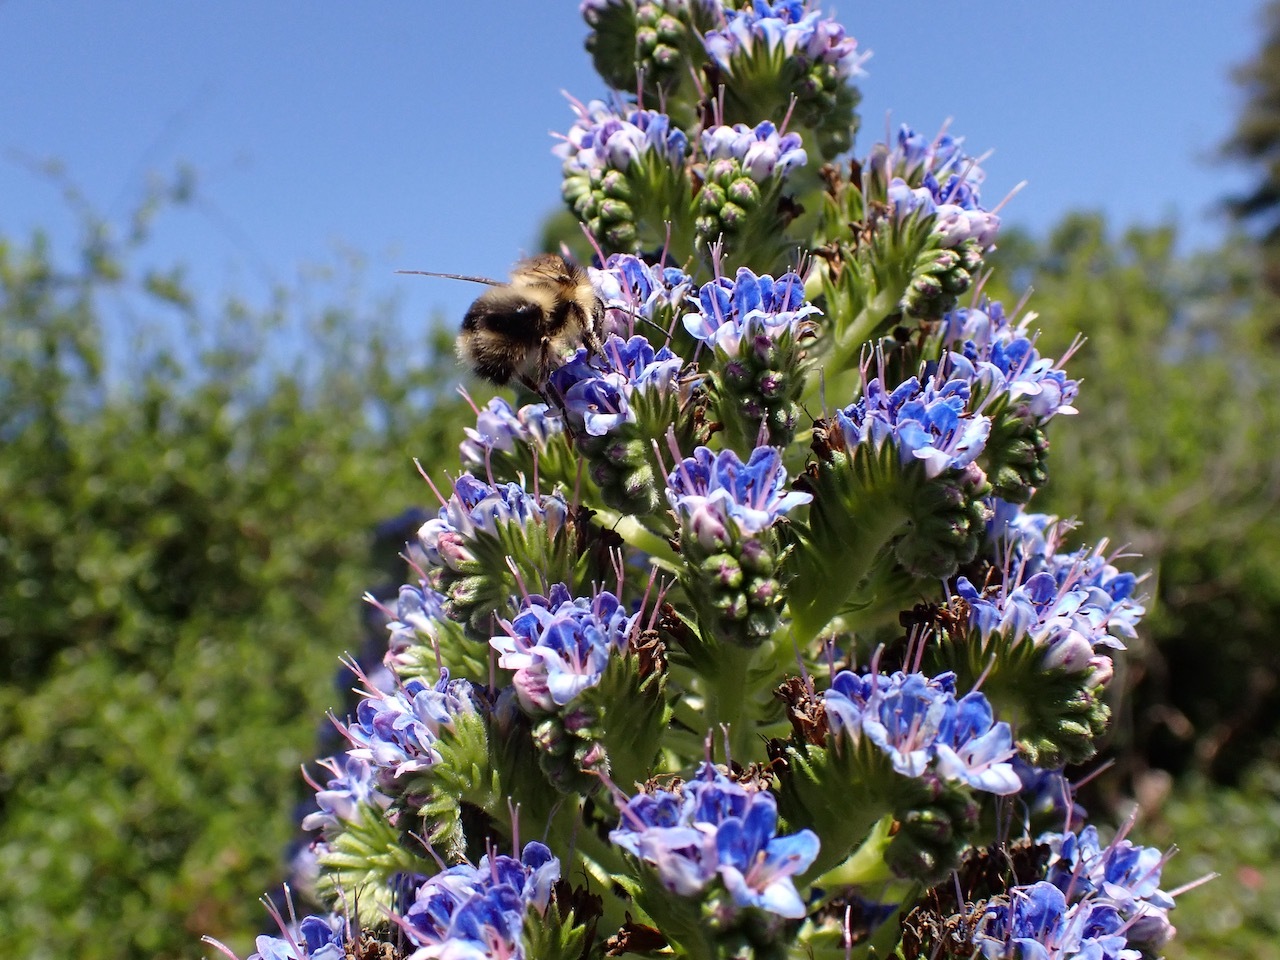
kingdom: Animalia
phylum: Arthropoda
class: Insecta
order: Hymenoptera
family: Apidae
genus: Bombus
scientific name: Bombus melanopygus
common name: Black tail bumble bee
